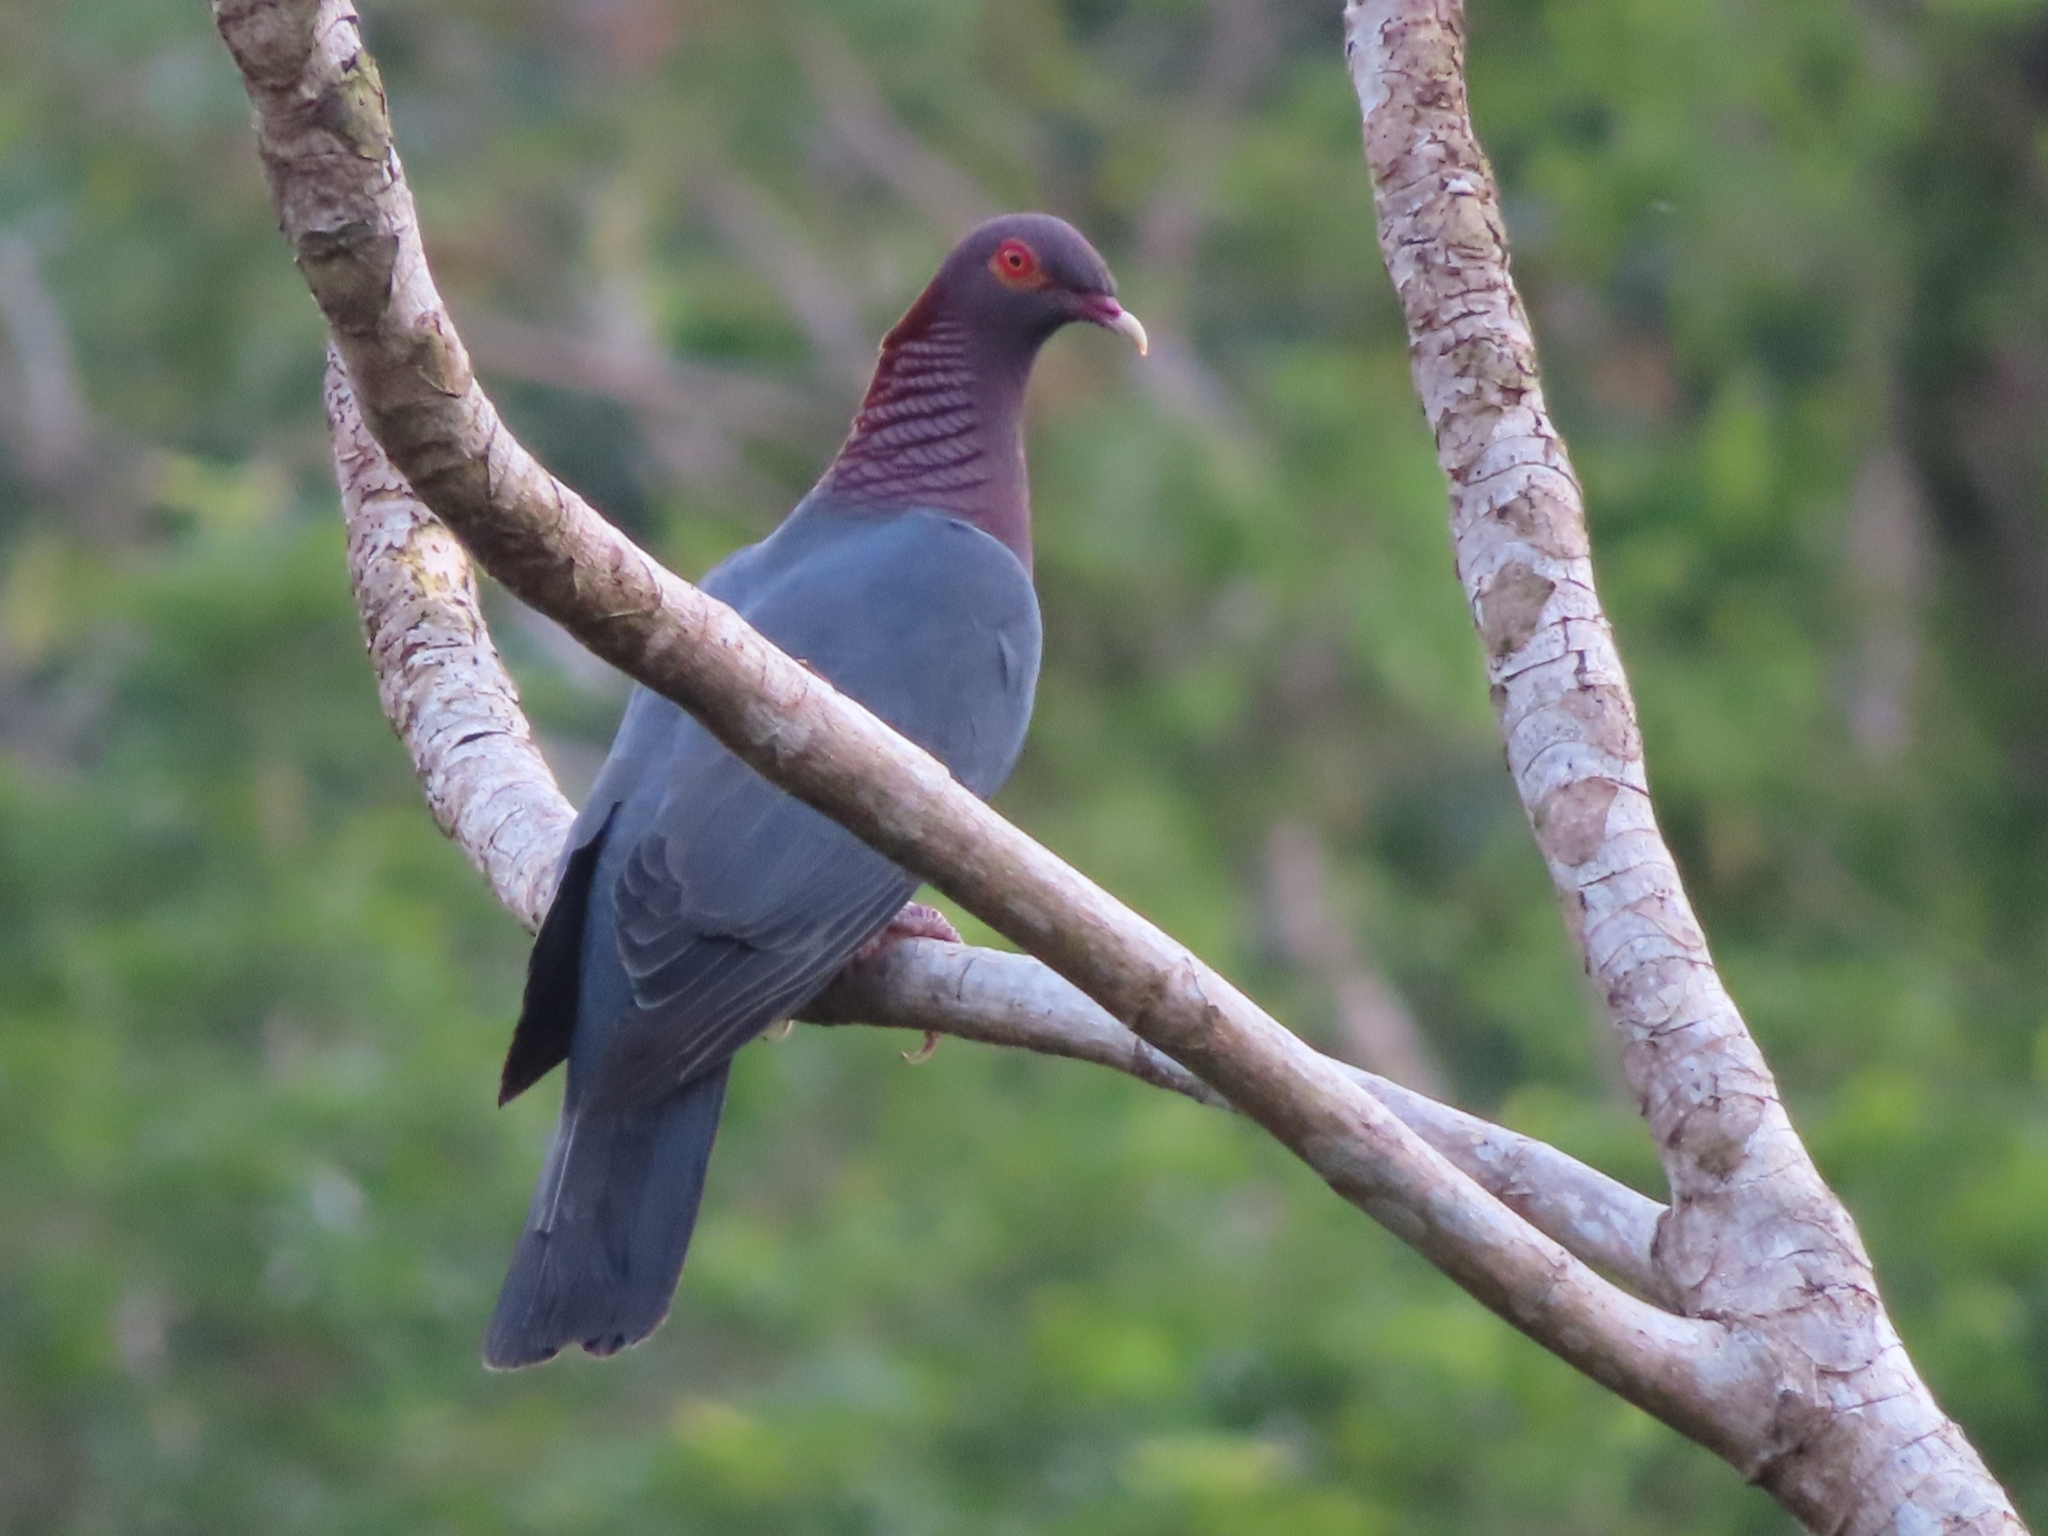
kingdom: Animalia
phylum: Chordata
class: Aves
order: Columbiformes
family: Columbidae
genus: Patagioenas
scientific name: Patagioenas squamosa
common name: Scaly-naped pigeon
